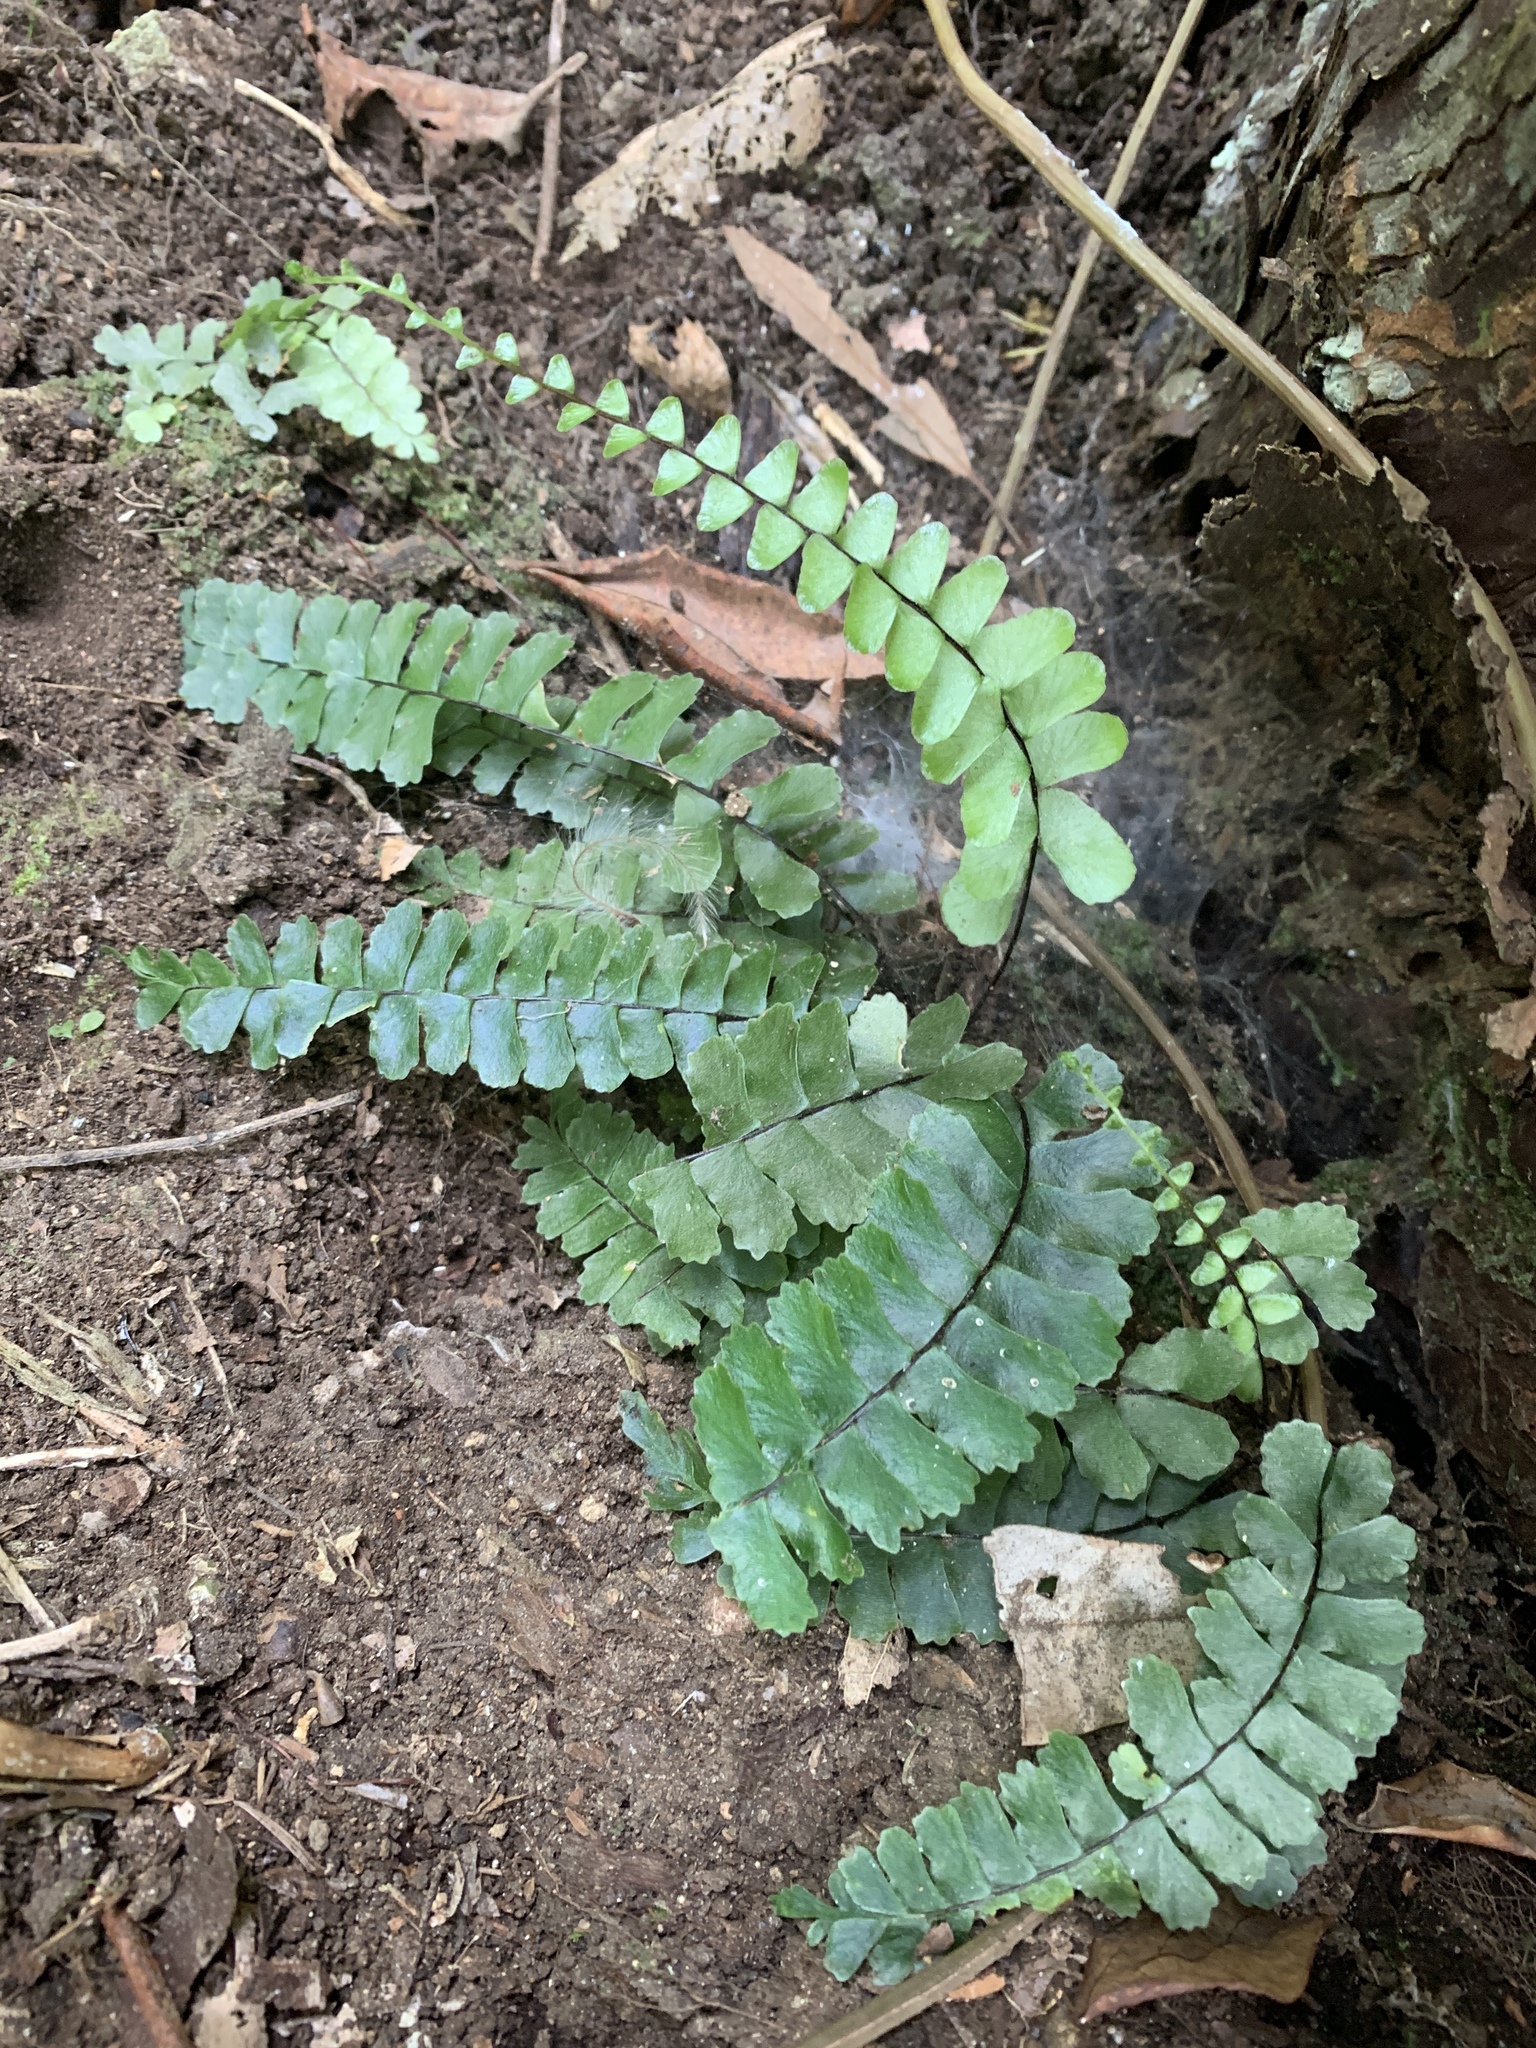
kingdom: Plantae
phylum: Tracheophyta
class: Polypodiopsida
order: Polypodiales
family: Aspleniaceae
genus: Asplenium
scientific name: Asplenium normale
